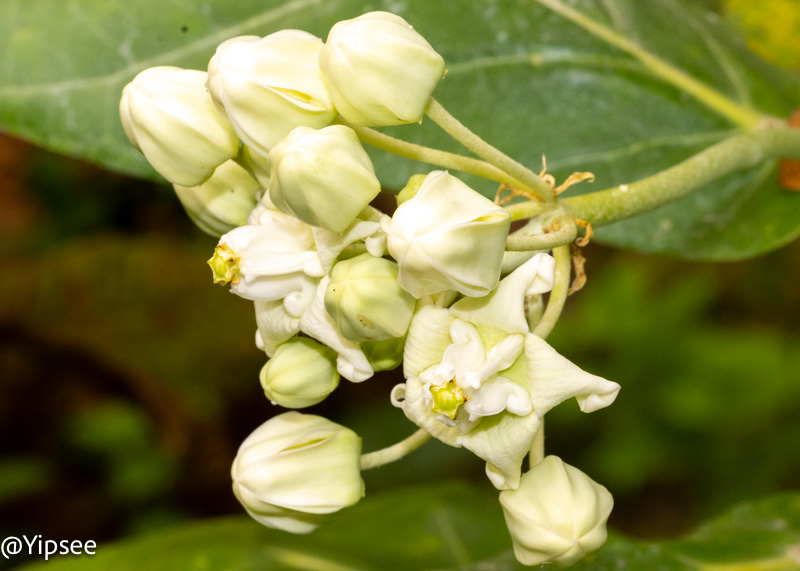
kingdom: Plantae
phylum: Tracheophyta
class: Magnoliopsida
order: Gentianales
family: Apocynaceae
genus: Calotropis
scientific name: Calotropis gigantea
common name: Crown flower
